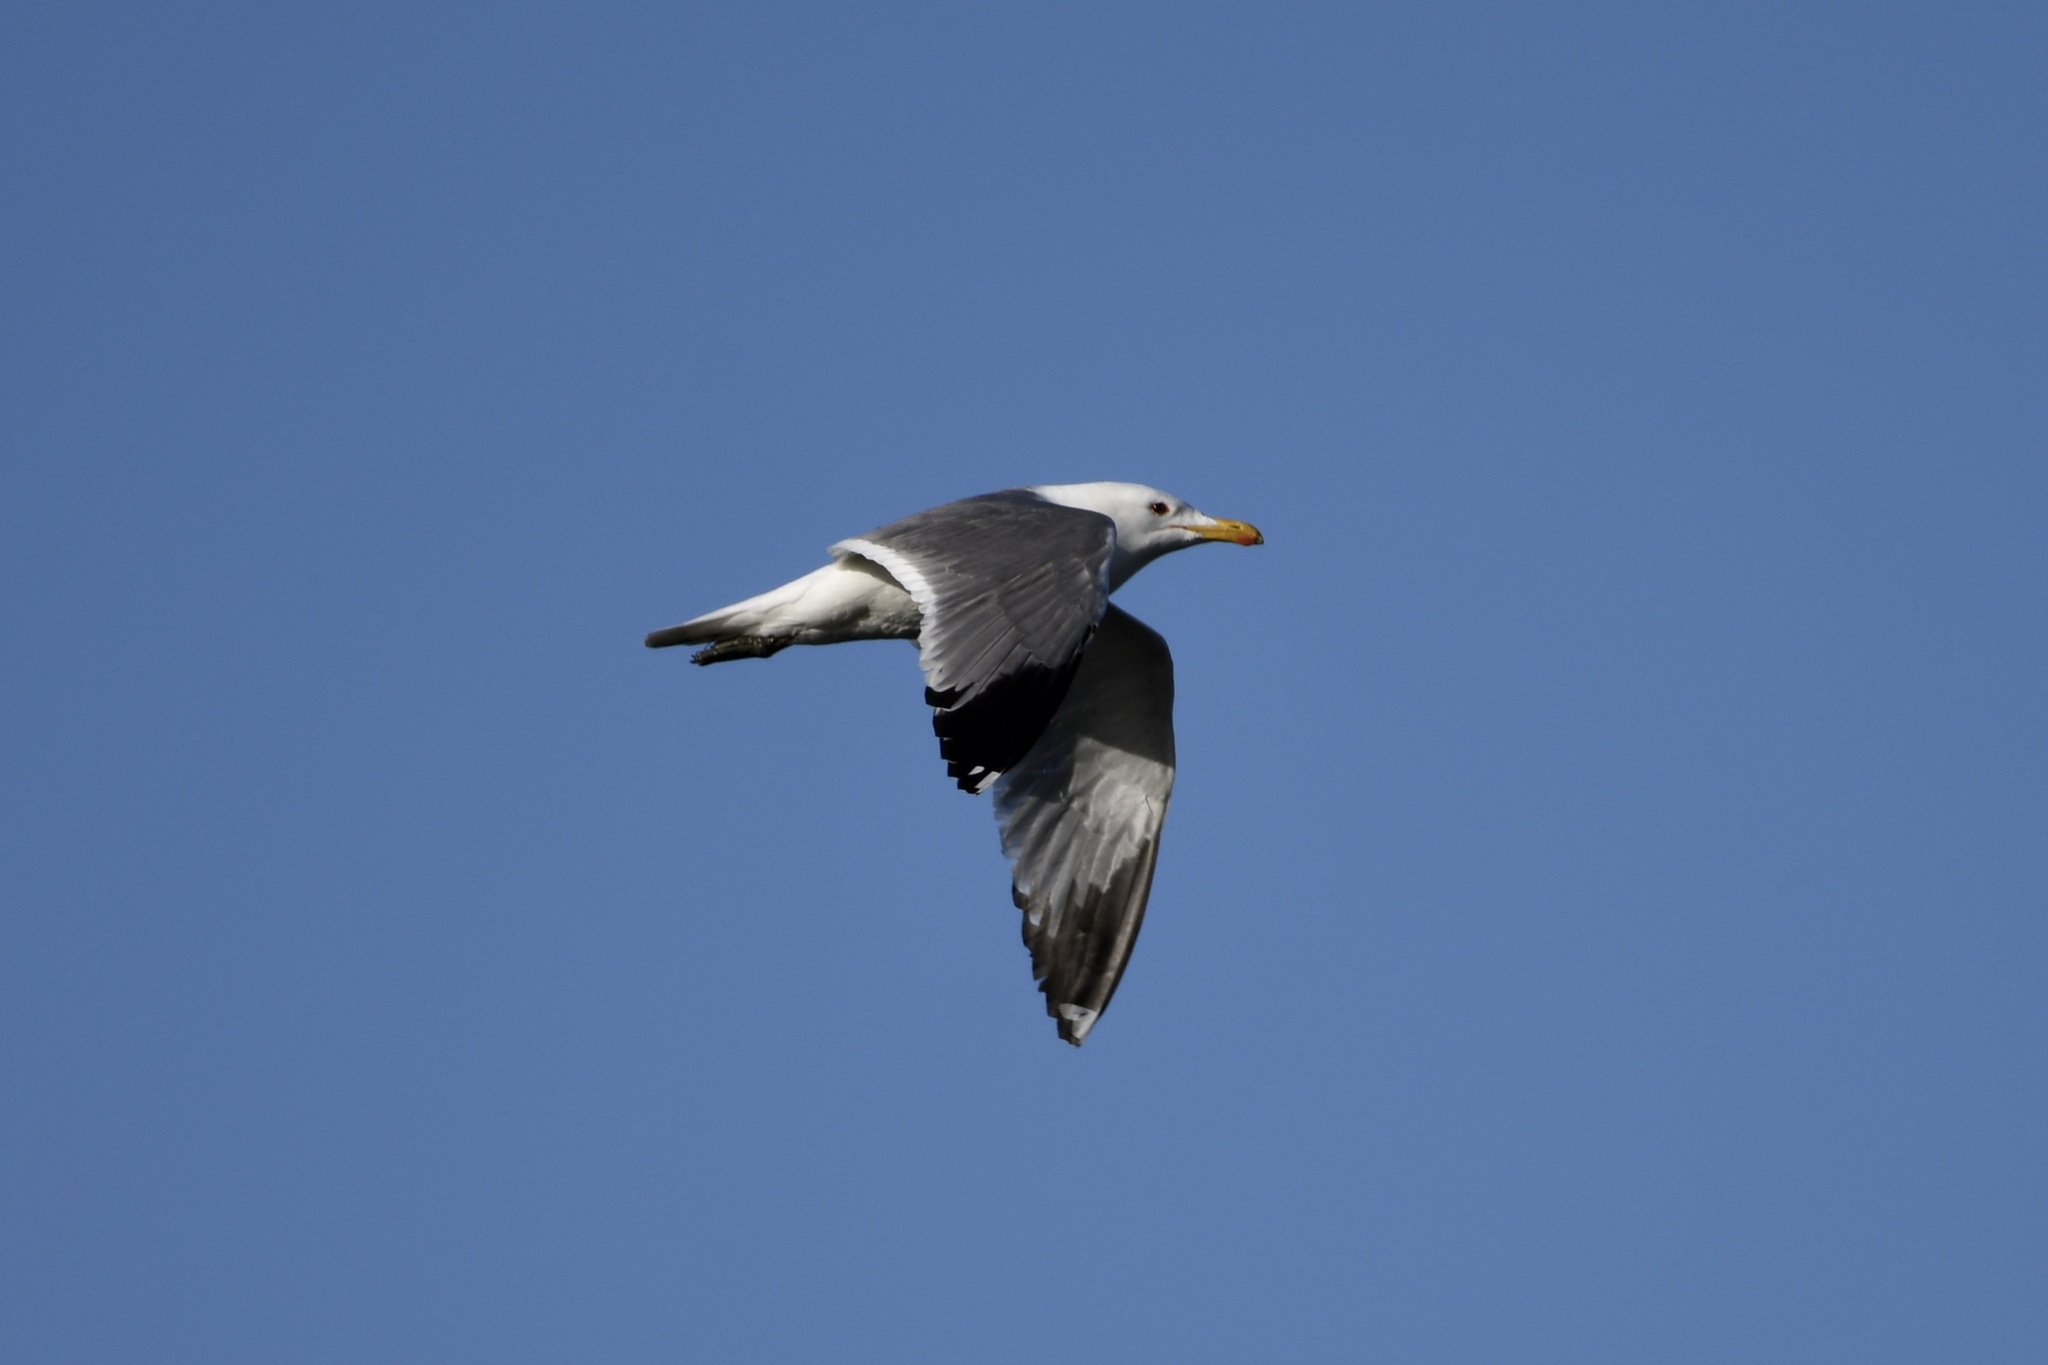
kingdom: Animalia
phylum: Chordata
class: Aves
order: Charadriiformes
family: Laridae
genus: Larus
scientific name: Larus californicus
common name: California gull
